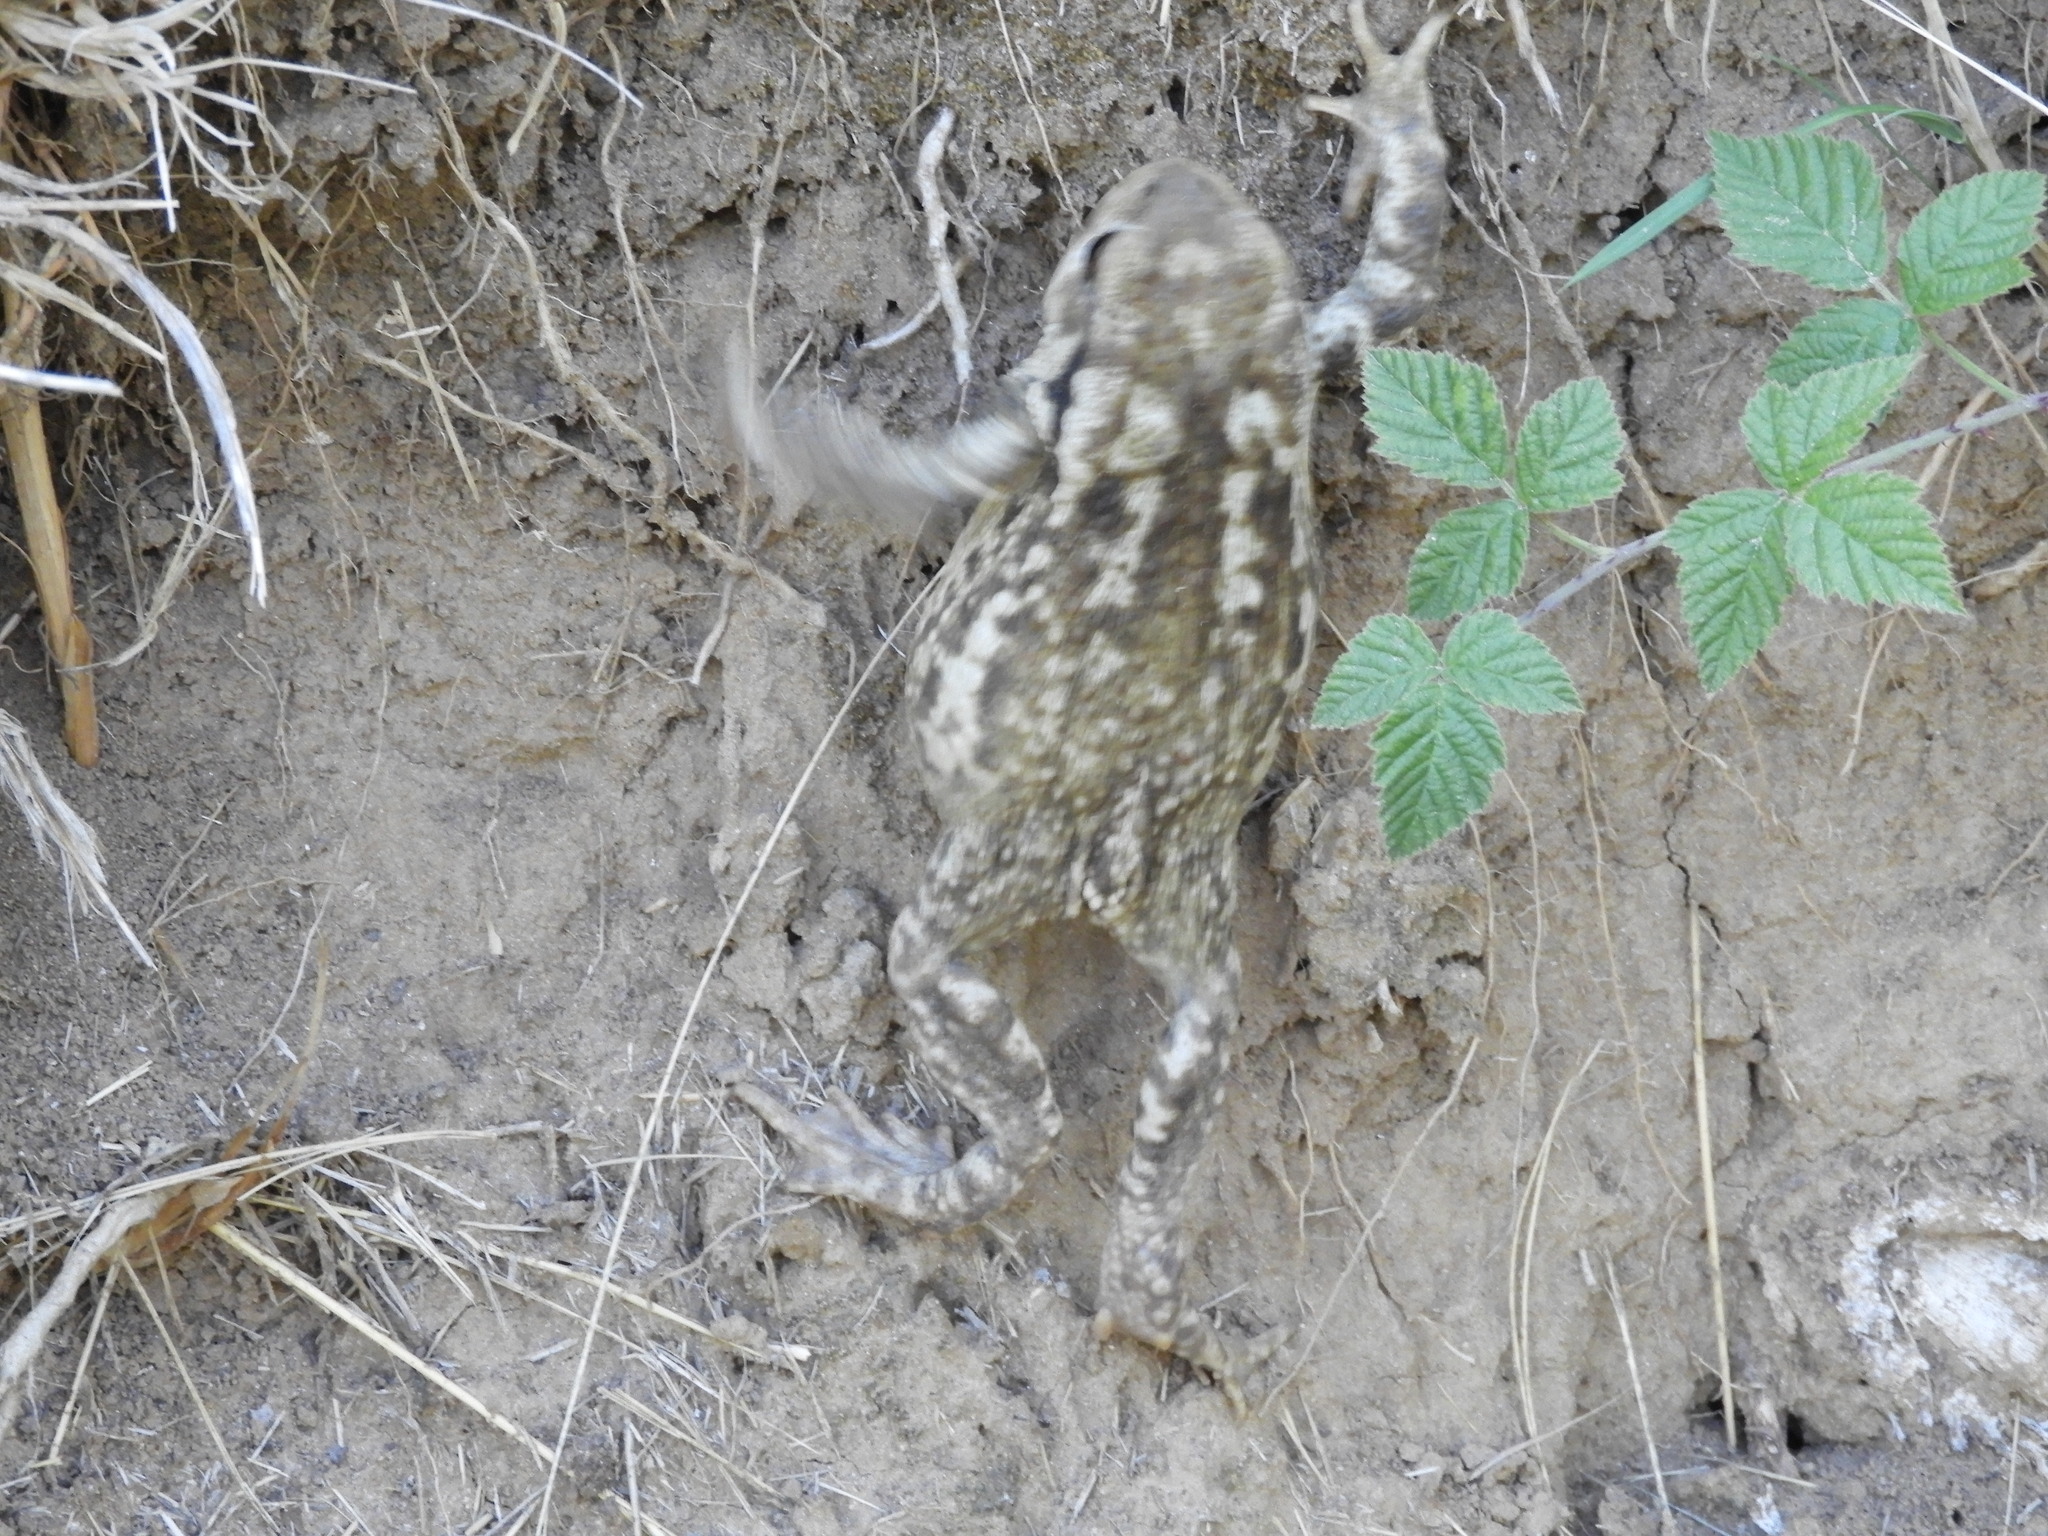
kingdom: Animalia
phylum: Chordata
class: Amphibia
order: Anura
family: Bufonidae
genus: Bufo
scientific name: Bufo spinosus
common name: Western common toad
